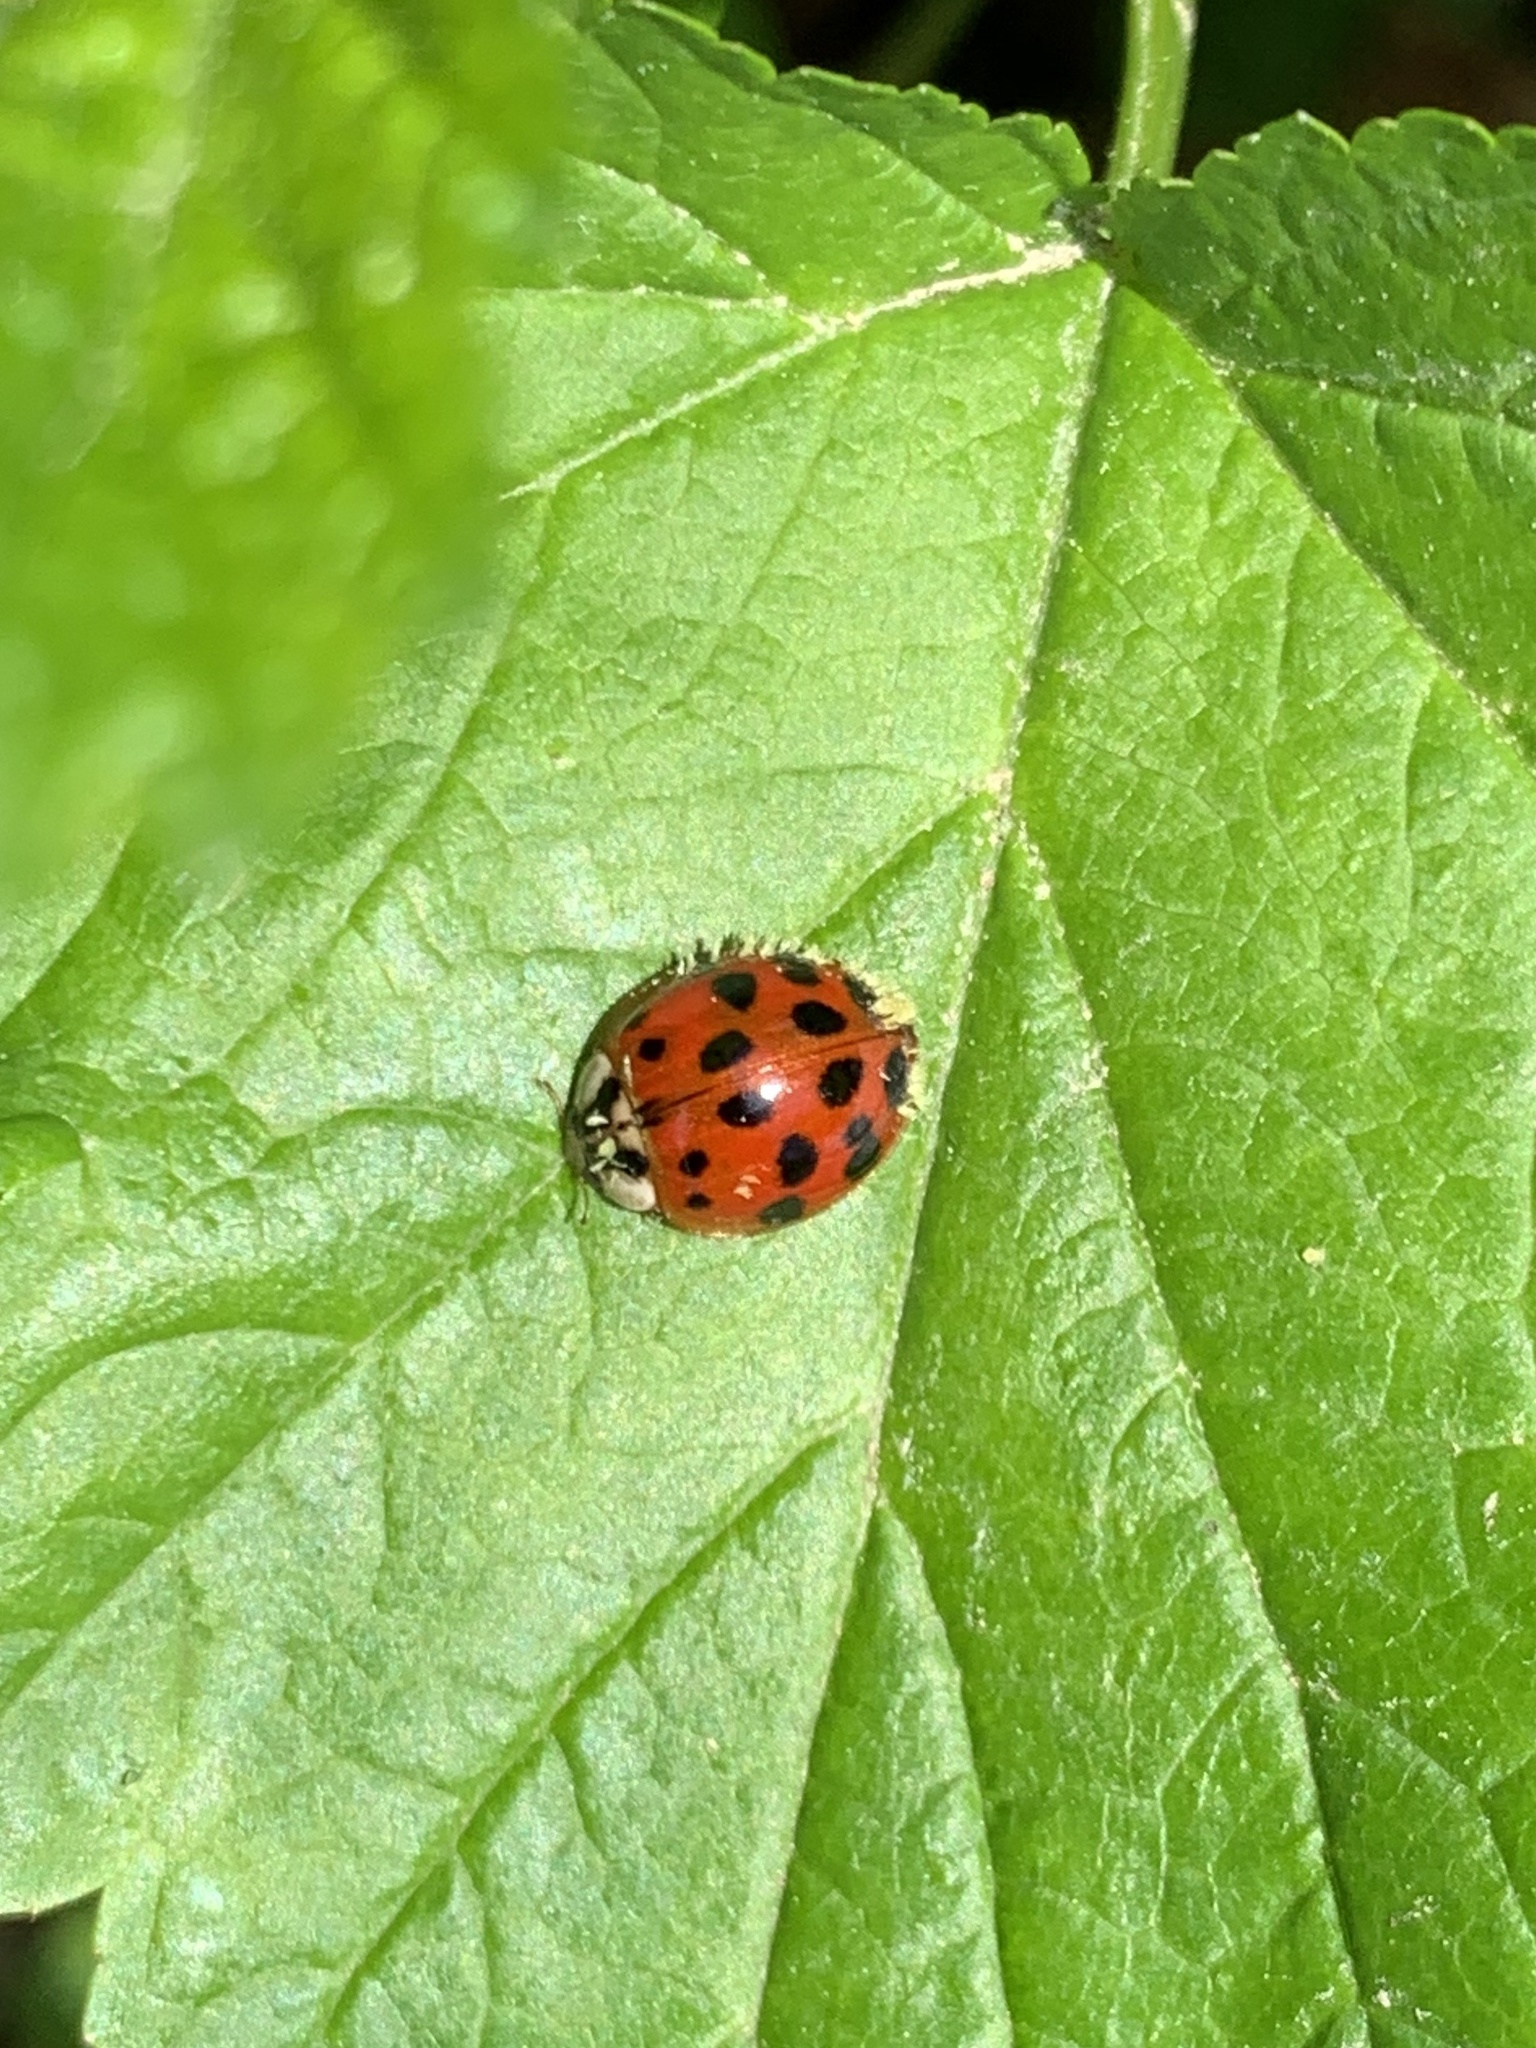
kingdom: Animalia
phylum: Arthropoda
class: Insecta
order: Coleoptera
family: Coccinellidae
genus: Harmonia
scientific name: Harmonia axyridis
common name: Harlequin ladybird
